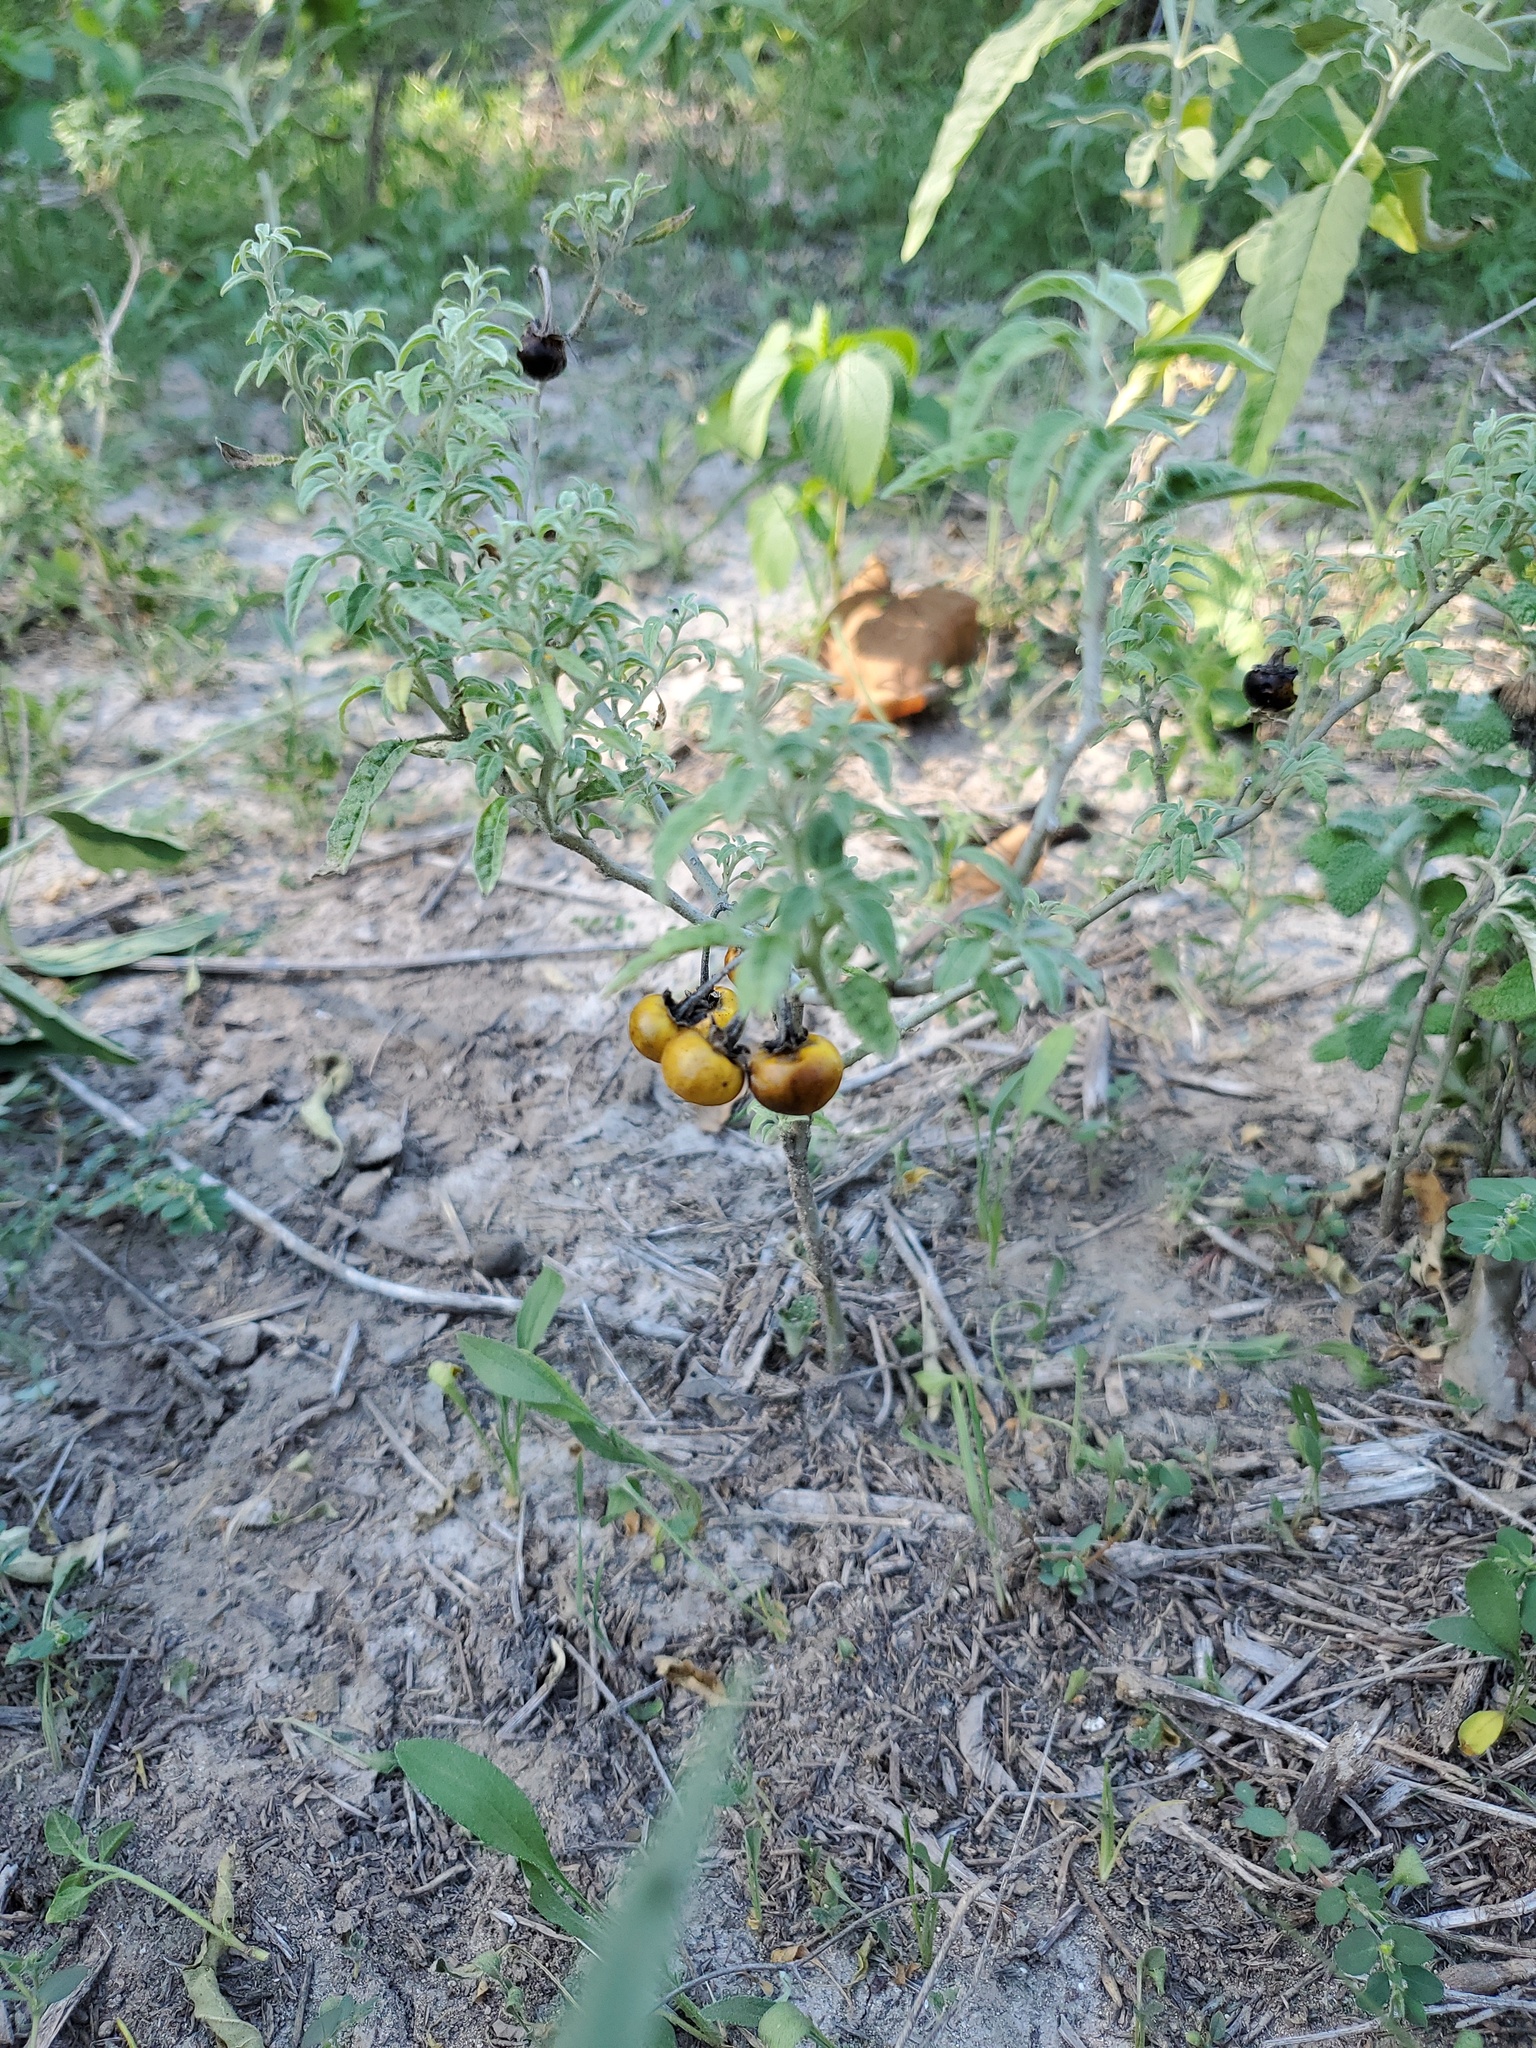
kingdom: Plantae
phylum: Tracheophyta
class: Magnoliopsida
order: Solanales
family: Solanaceae
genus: Solanum
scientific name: Solanum elaeagnifolium
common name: Silverleaf nightshade
